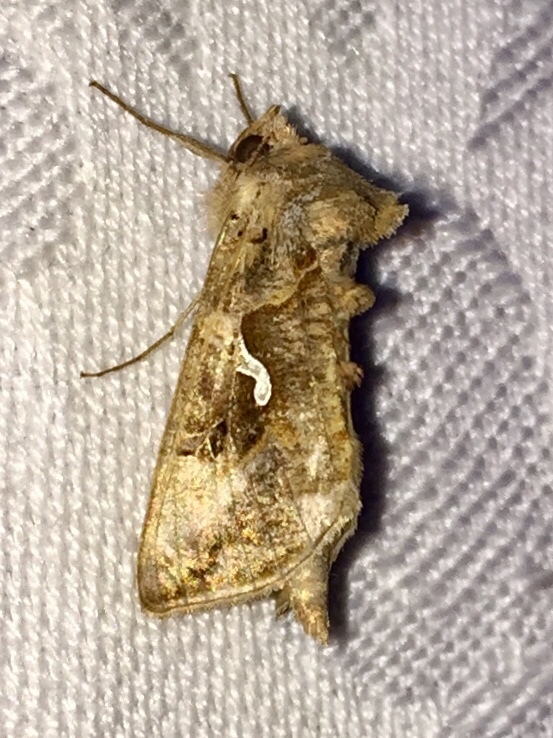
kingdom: Animalia
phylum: Arthropoda
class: Insecta
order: Lepidoptera
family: Noctuidae
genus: Autographa
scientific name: Autographa precationis
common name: Common looper moth
